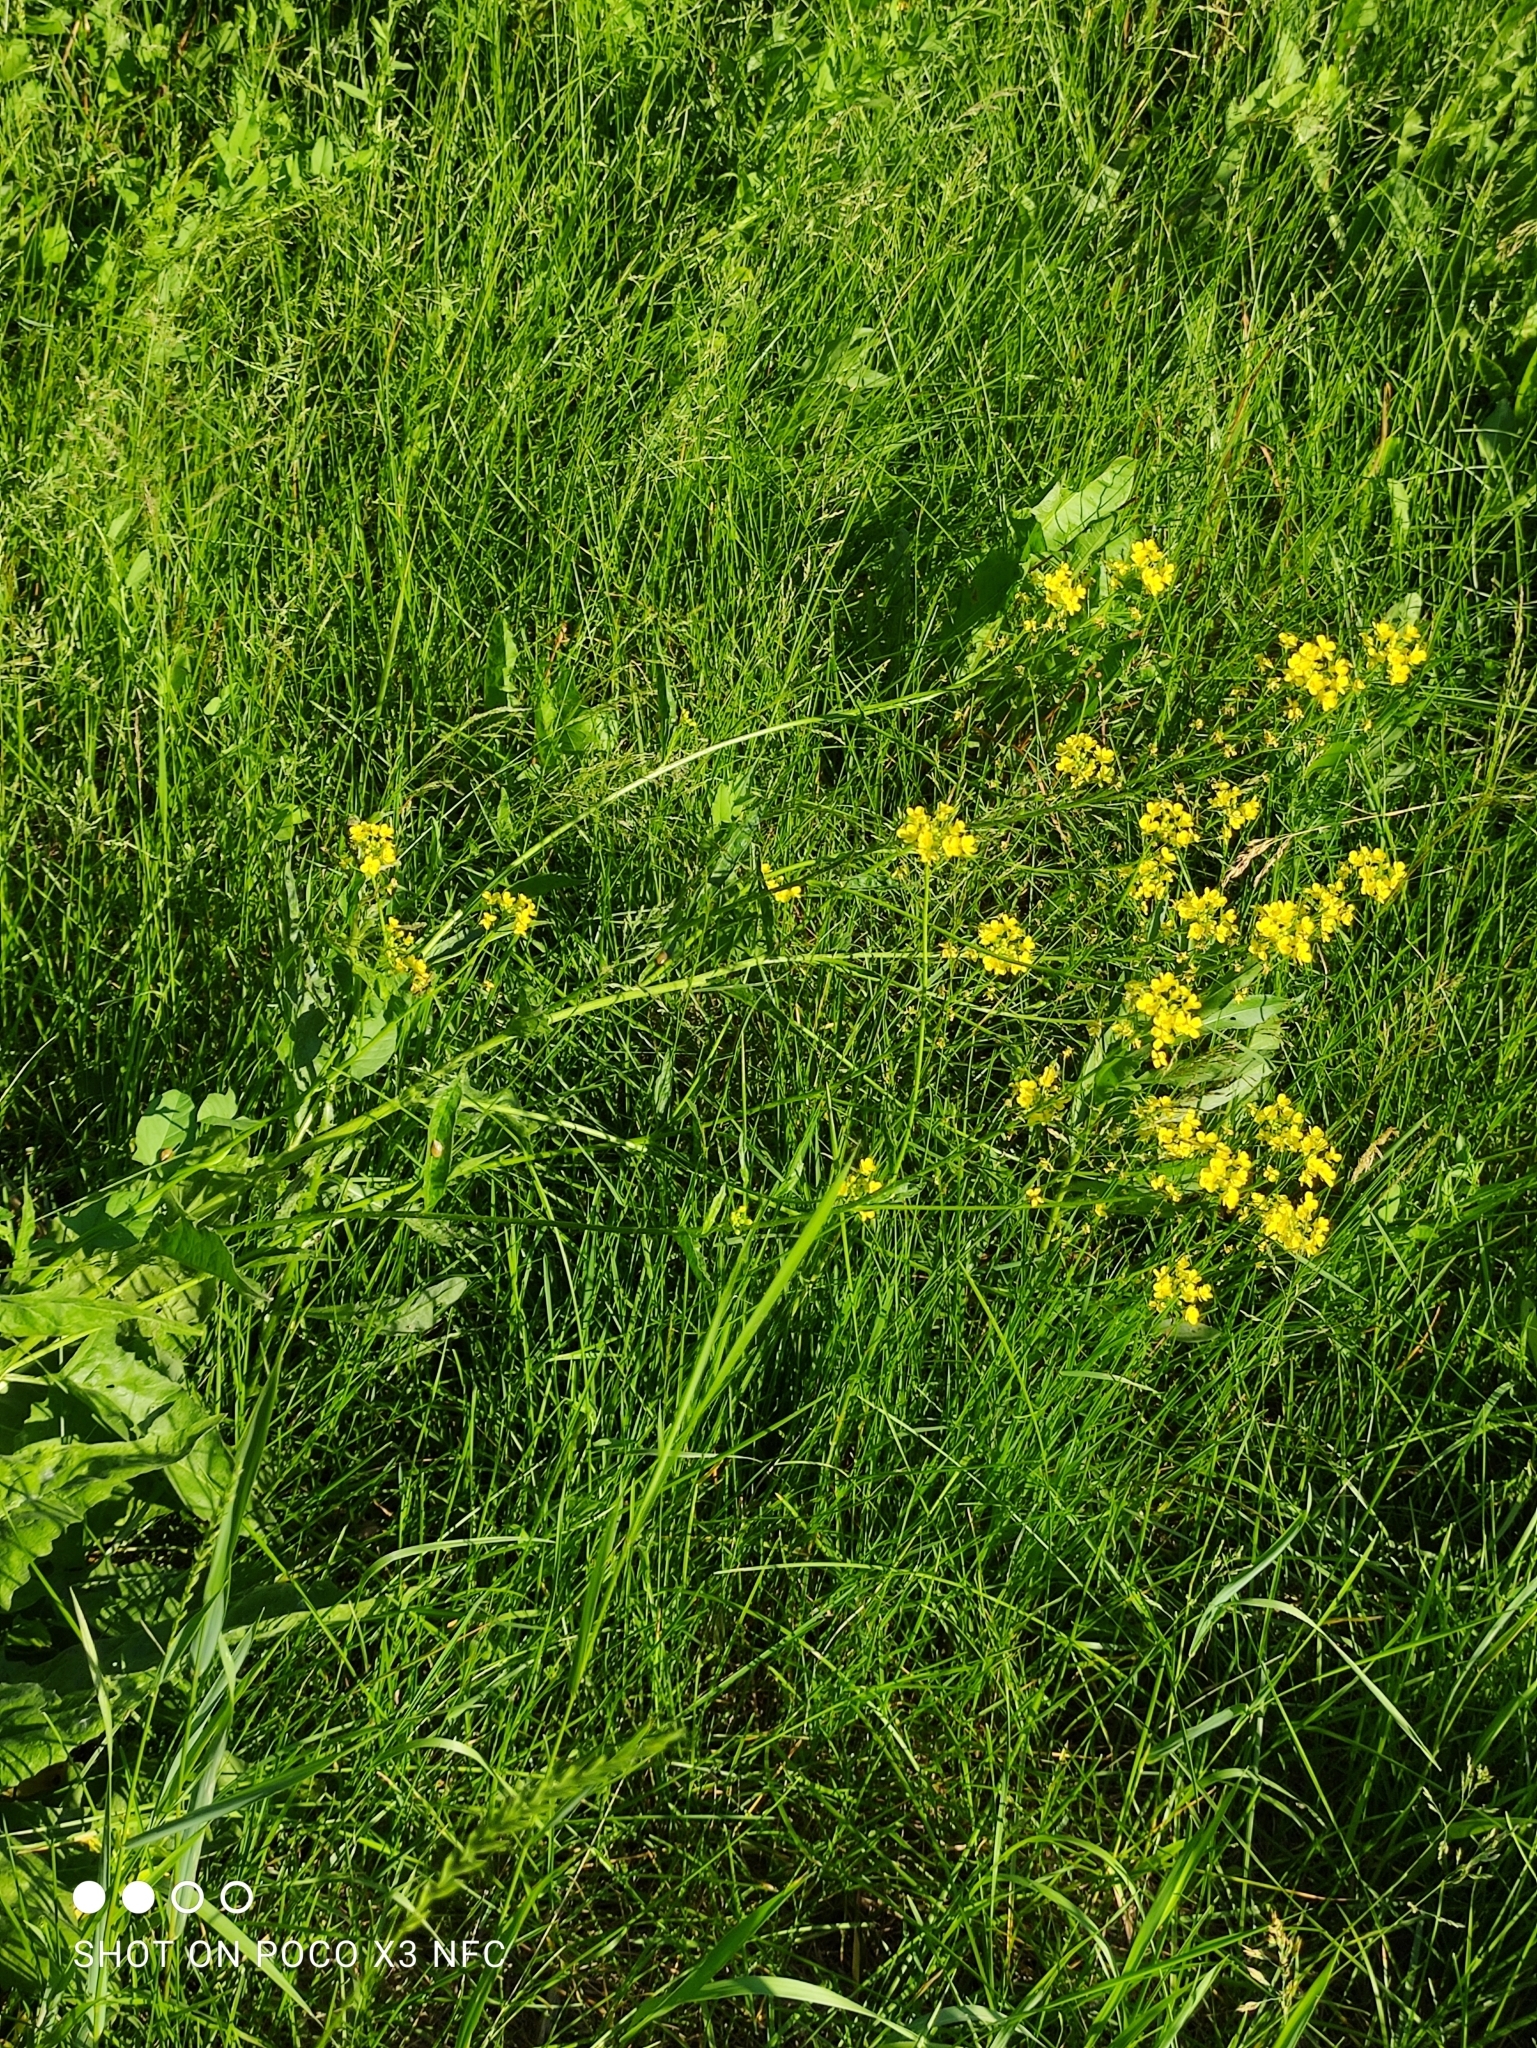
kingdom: Plantae
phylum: Tracheophyta
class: Magnoliopsida
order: Brassicales
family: Brassicaceae
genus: Bunias
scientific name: Bunias orientalis
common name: Warty-cabbage
